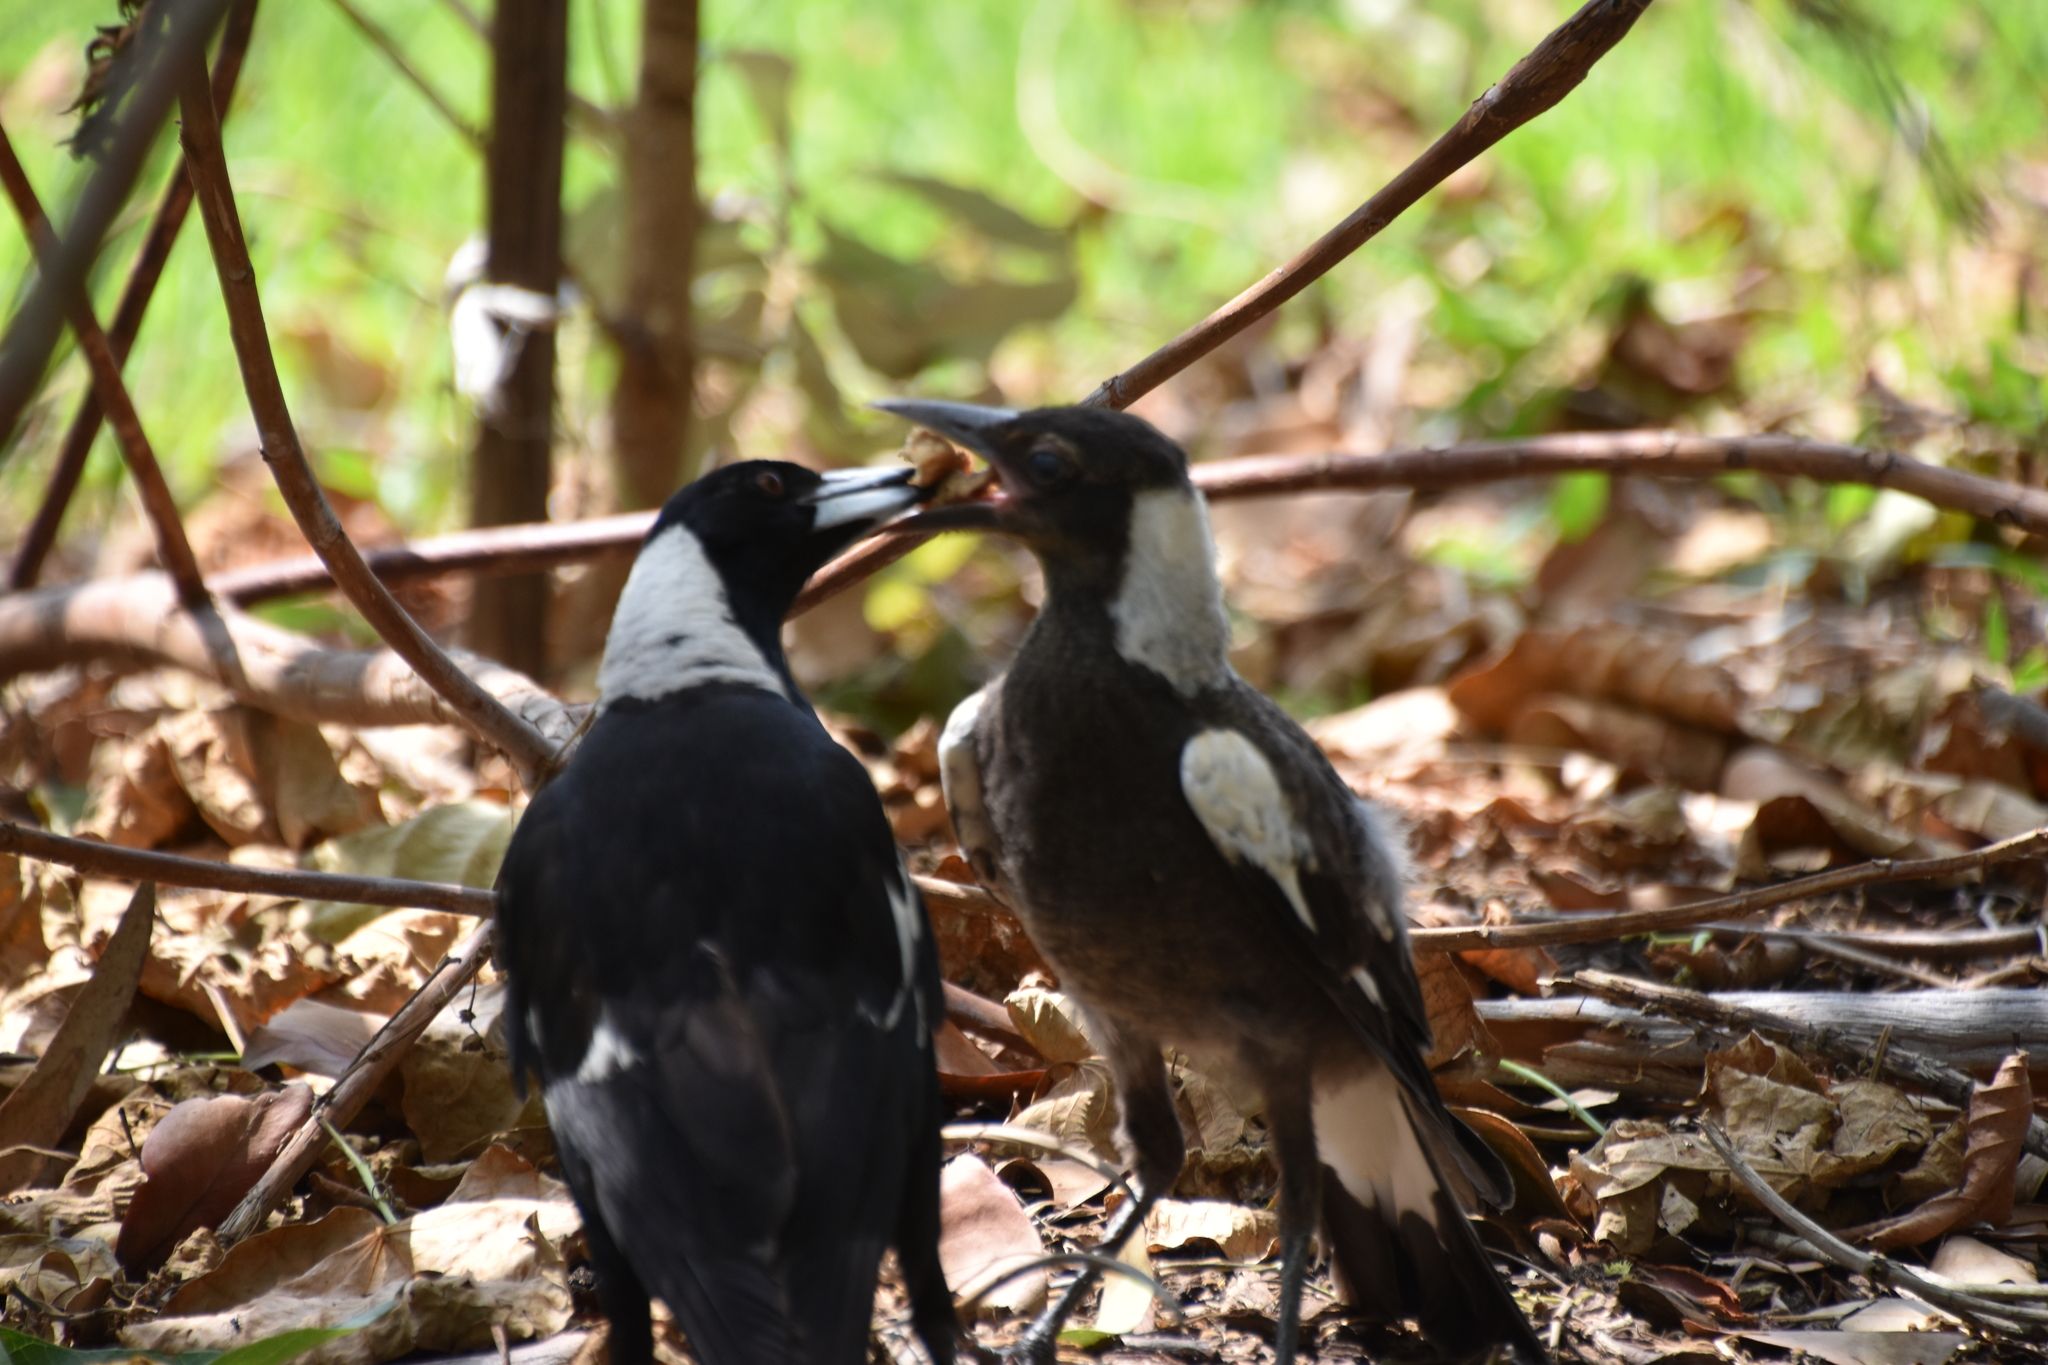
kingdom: Animalia
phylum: Chordata
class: Aves
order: Passeriformes
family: Cracticidae
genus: Gymnorhina
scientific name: Gymnorhina tibicen
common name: Australian magpie
